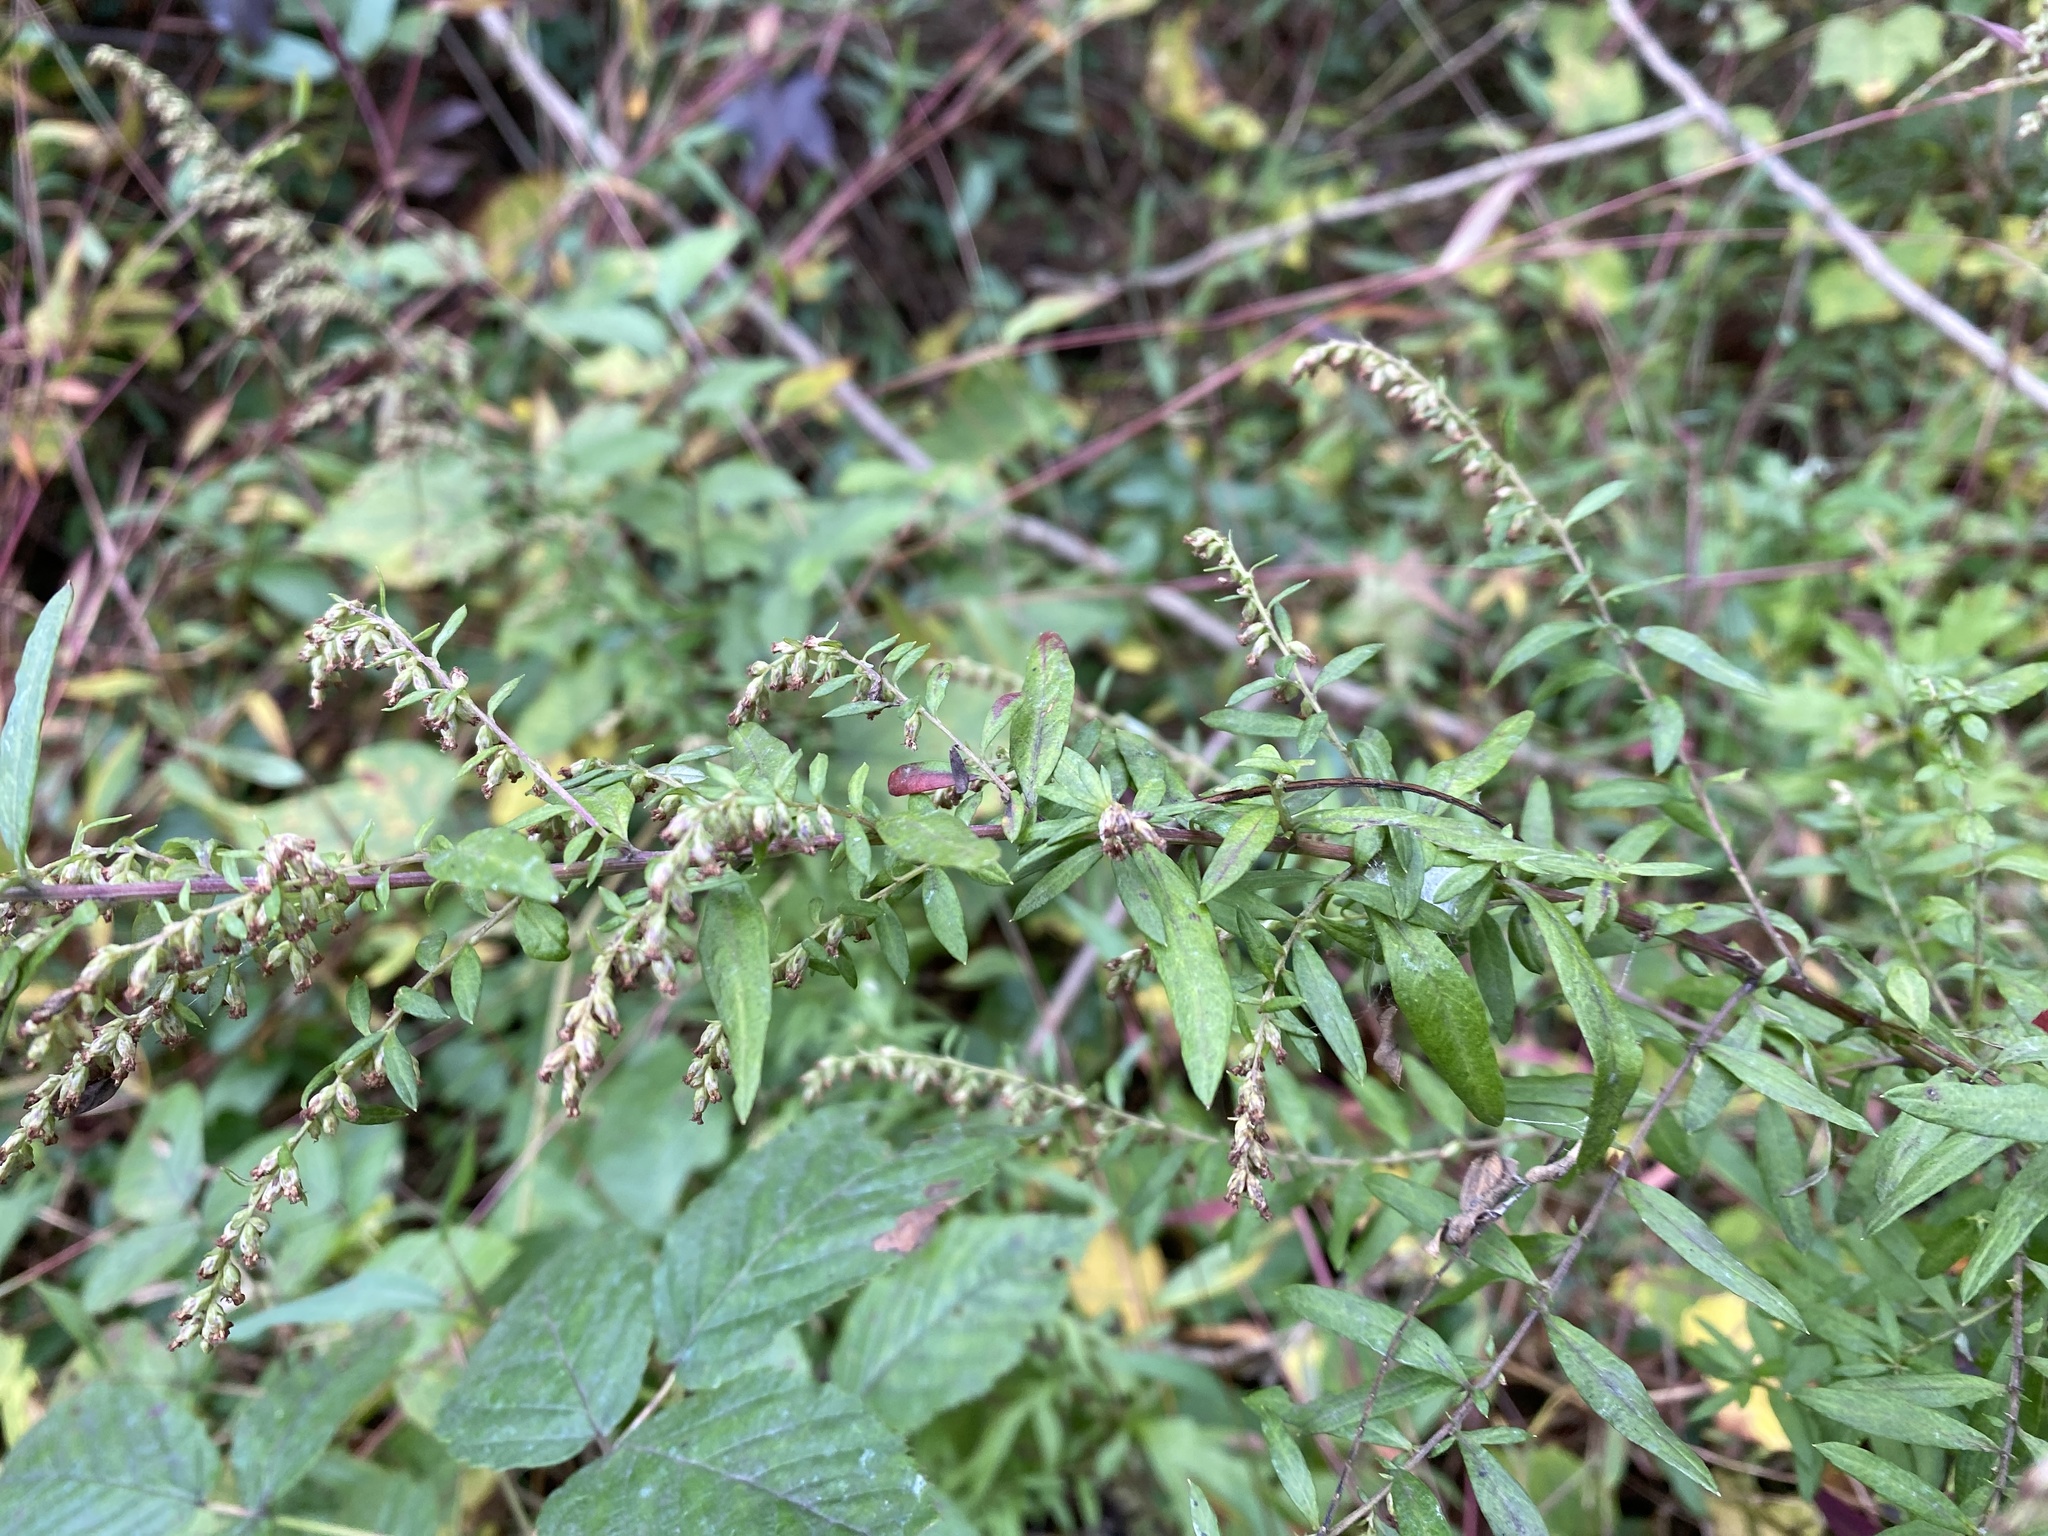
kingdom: Plantae
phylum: Tracheophyta
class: Magnoliopsida
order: Asterales
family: Asteraceae
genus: Artemisia
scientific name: Artemisia vulgaris
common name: Mugwort
